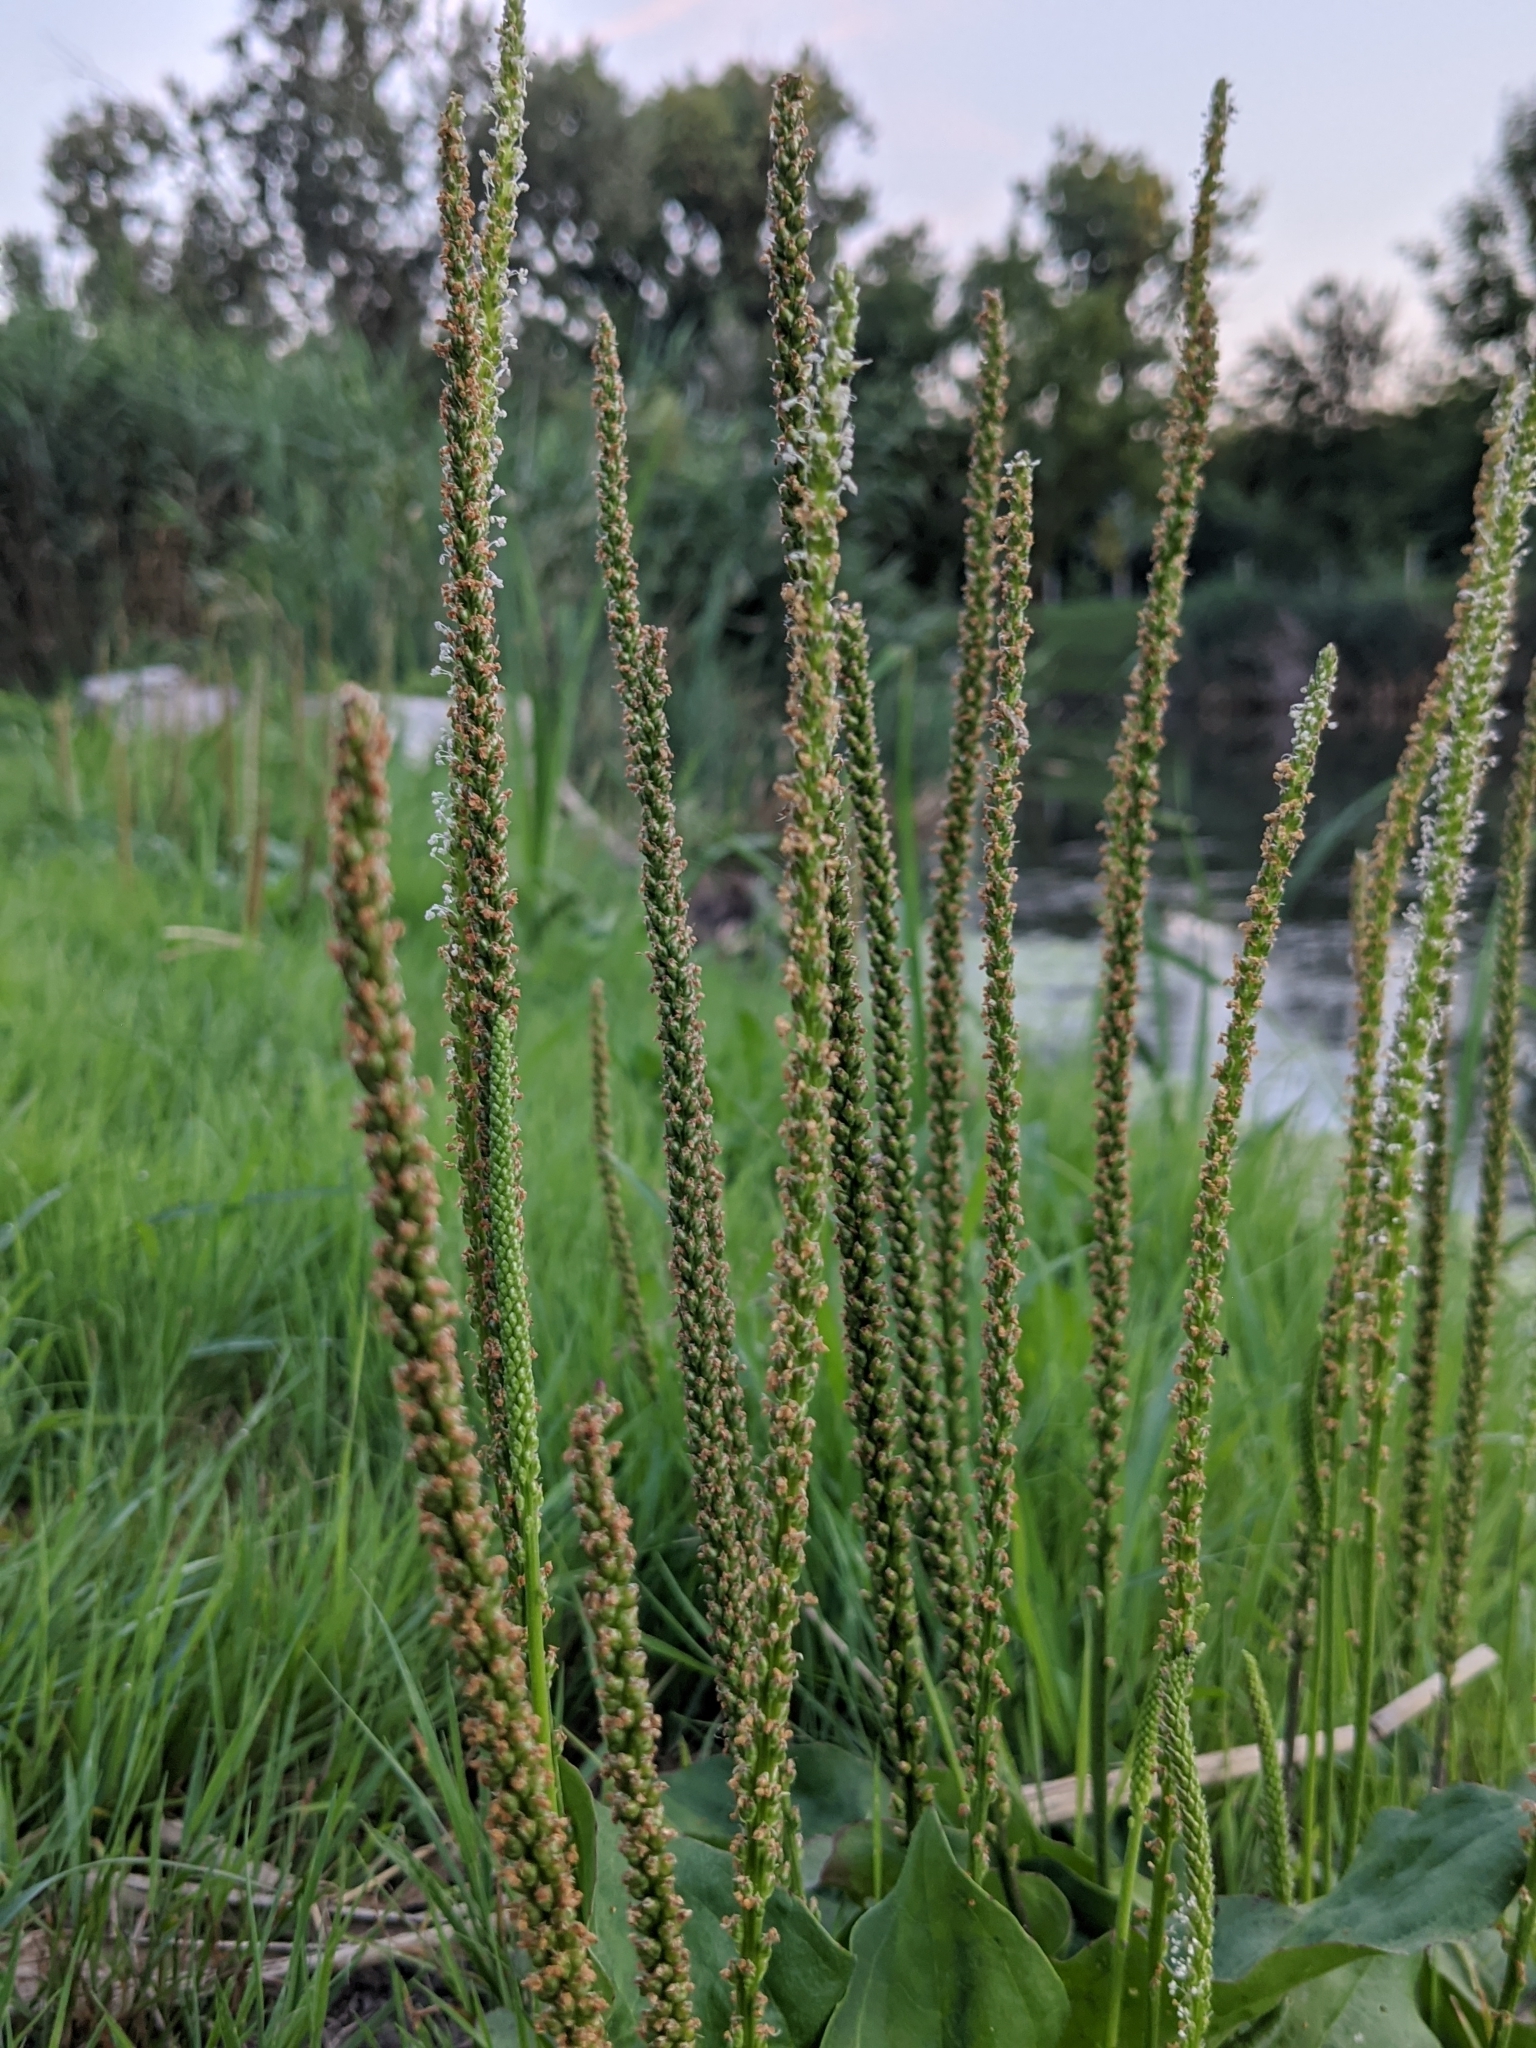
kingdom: Plantae
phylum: Tracheophyta
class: Magnoliopsida
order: Lamiales
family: Plantaginaceae
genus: Plantago
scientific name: Plantago major
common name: Common plantain
